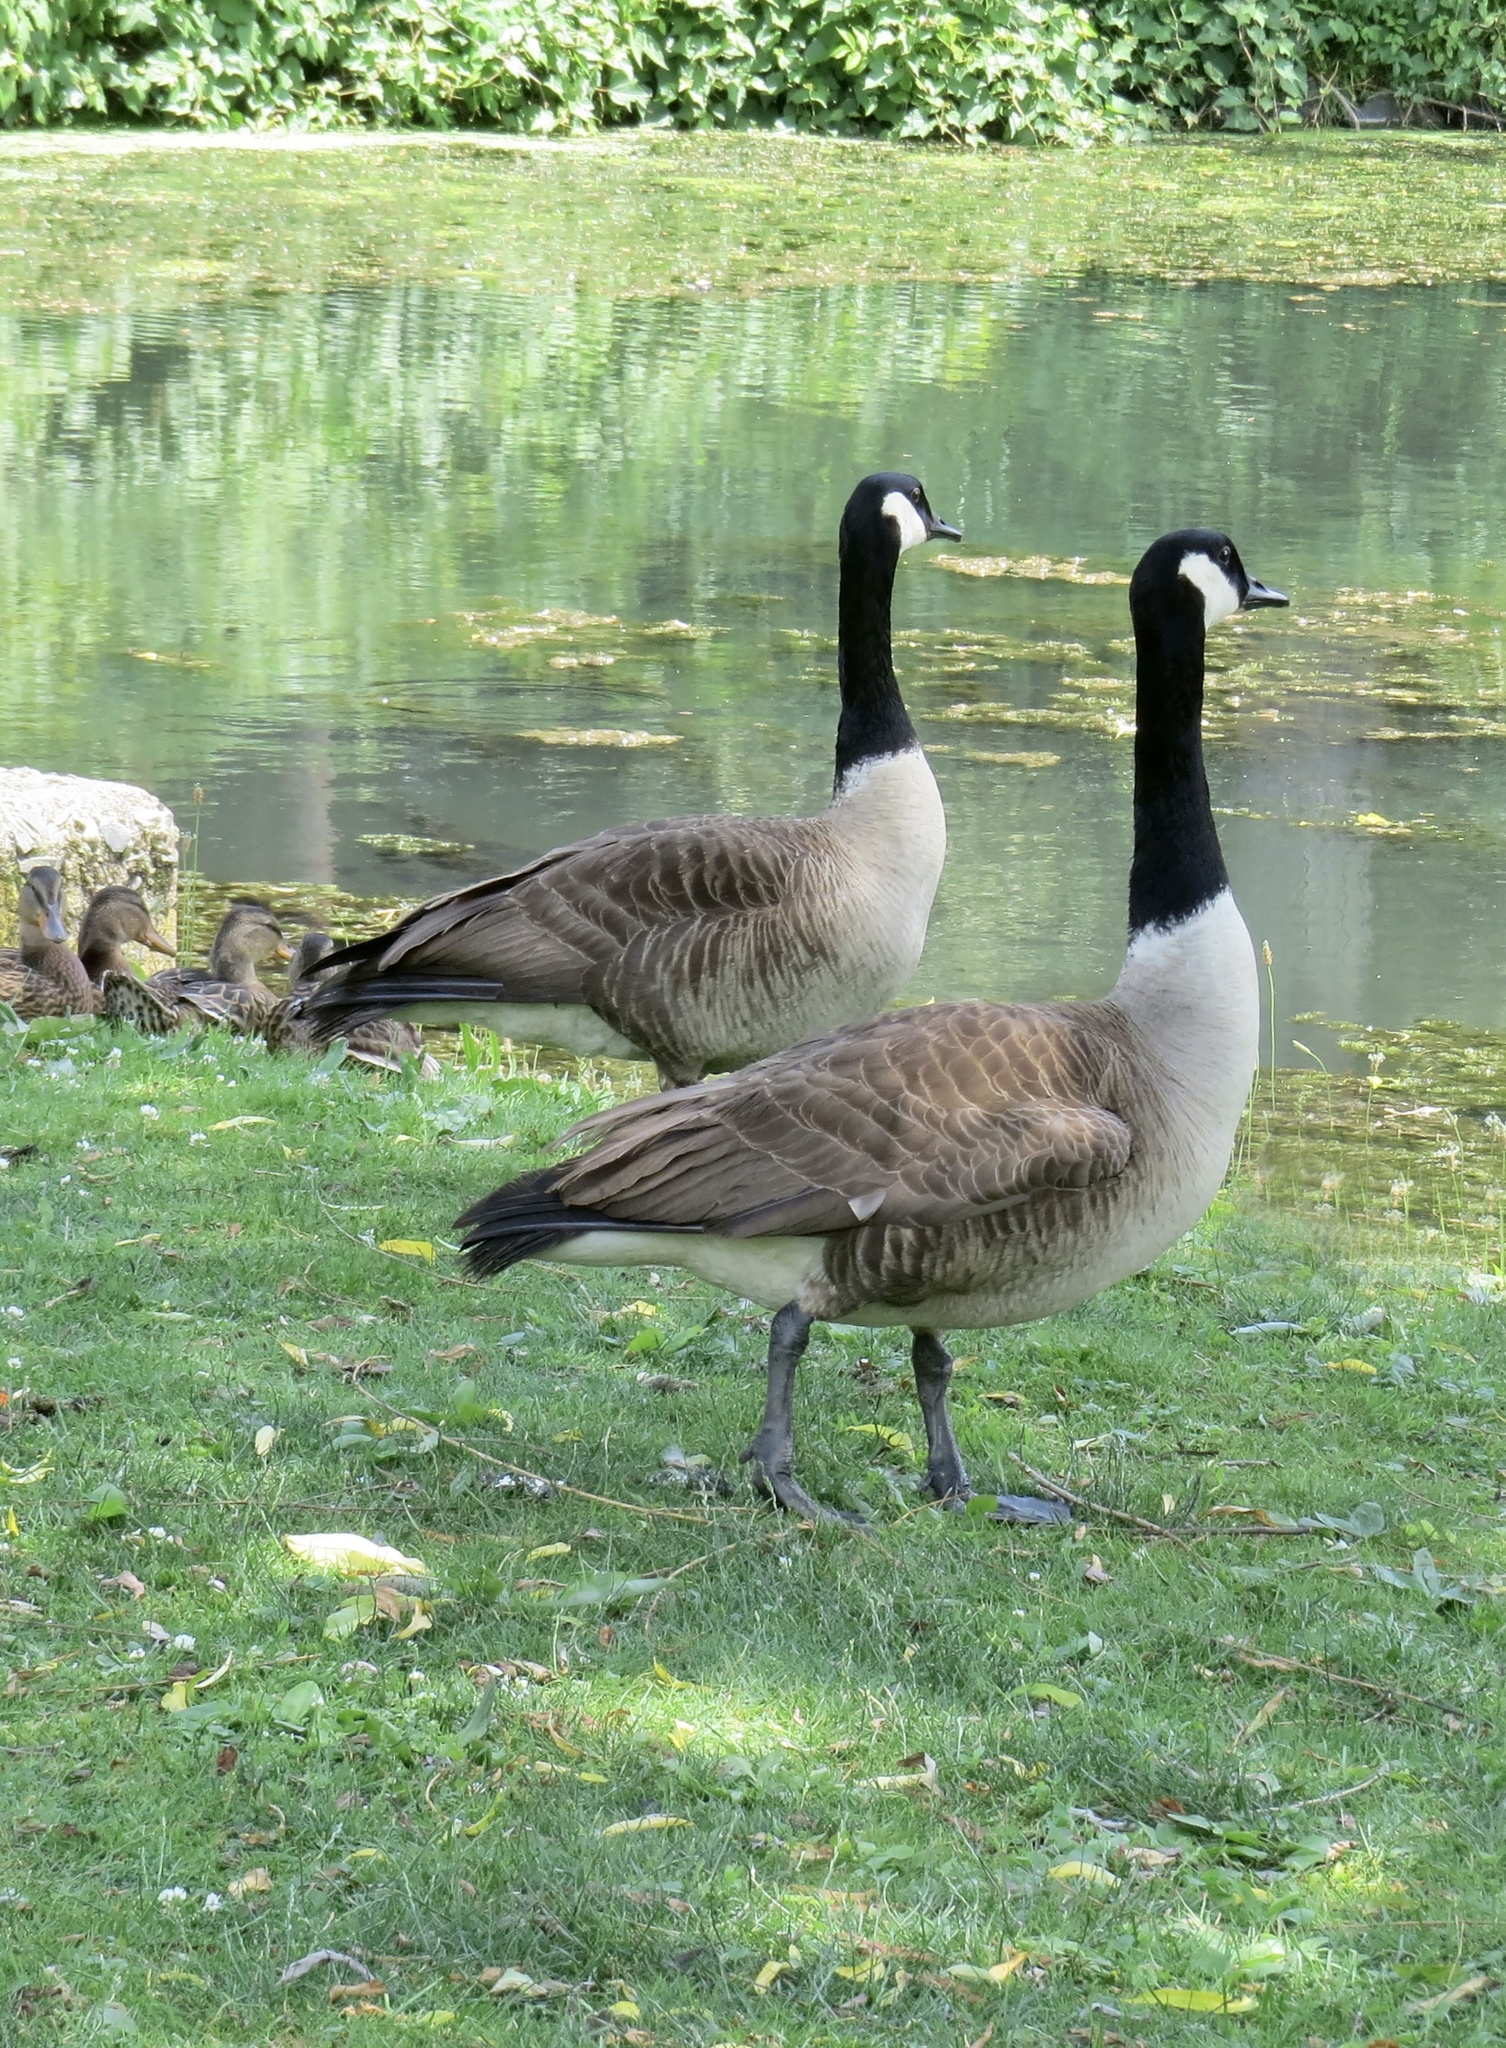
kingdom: Animalia
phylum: Chordata
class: Aves
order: Anseriformes
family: Anatidae
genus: Branta
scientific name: Branta canadensis
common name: Canada goose
